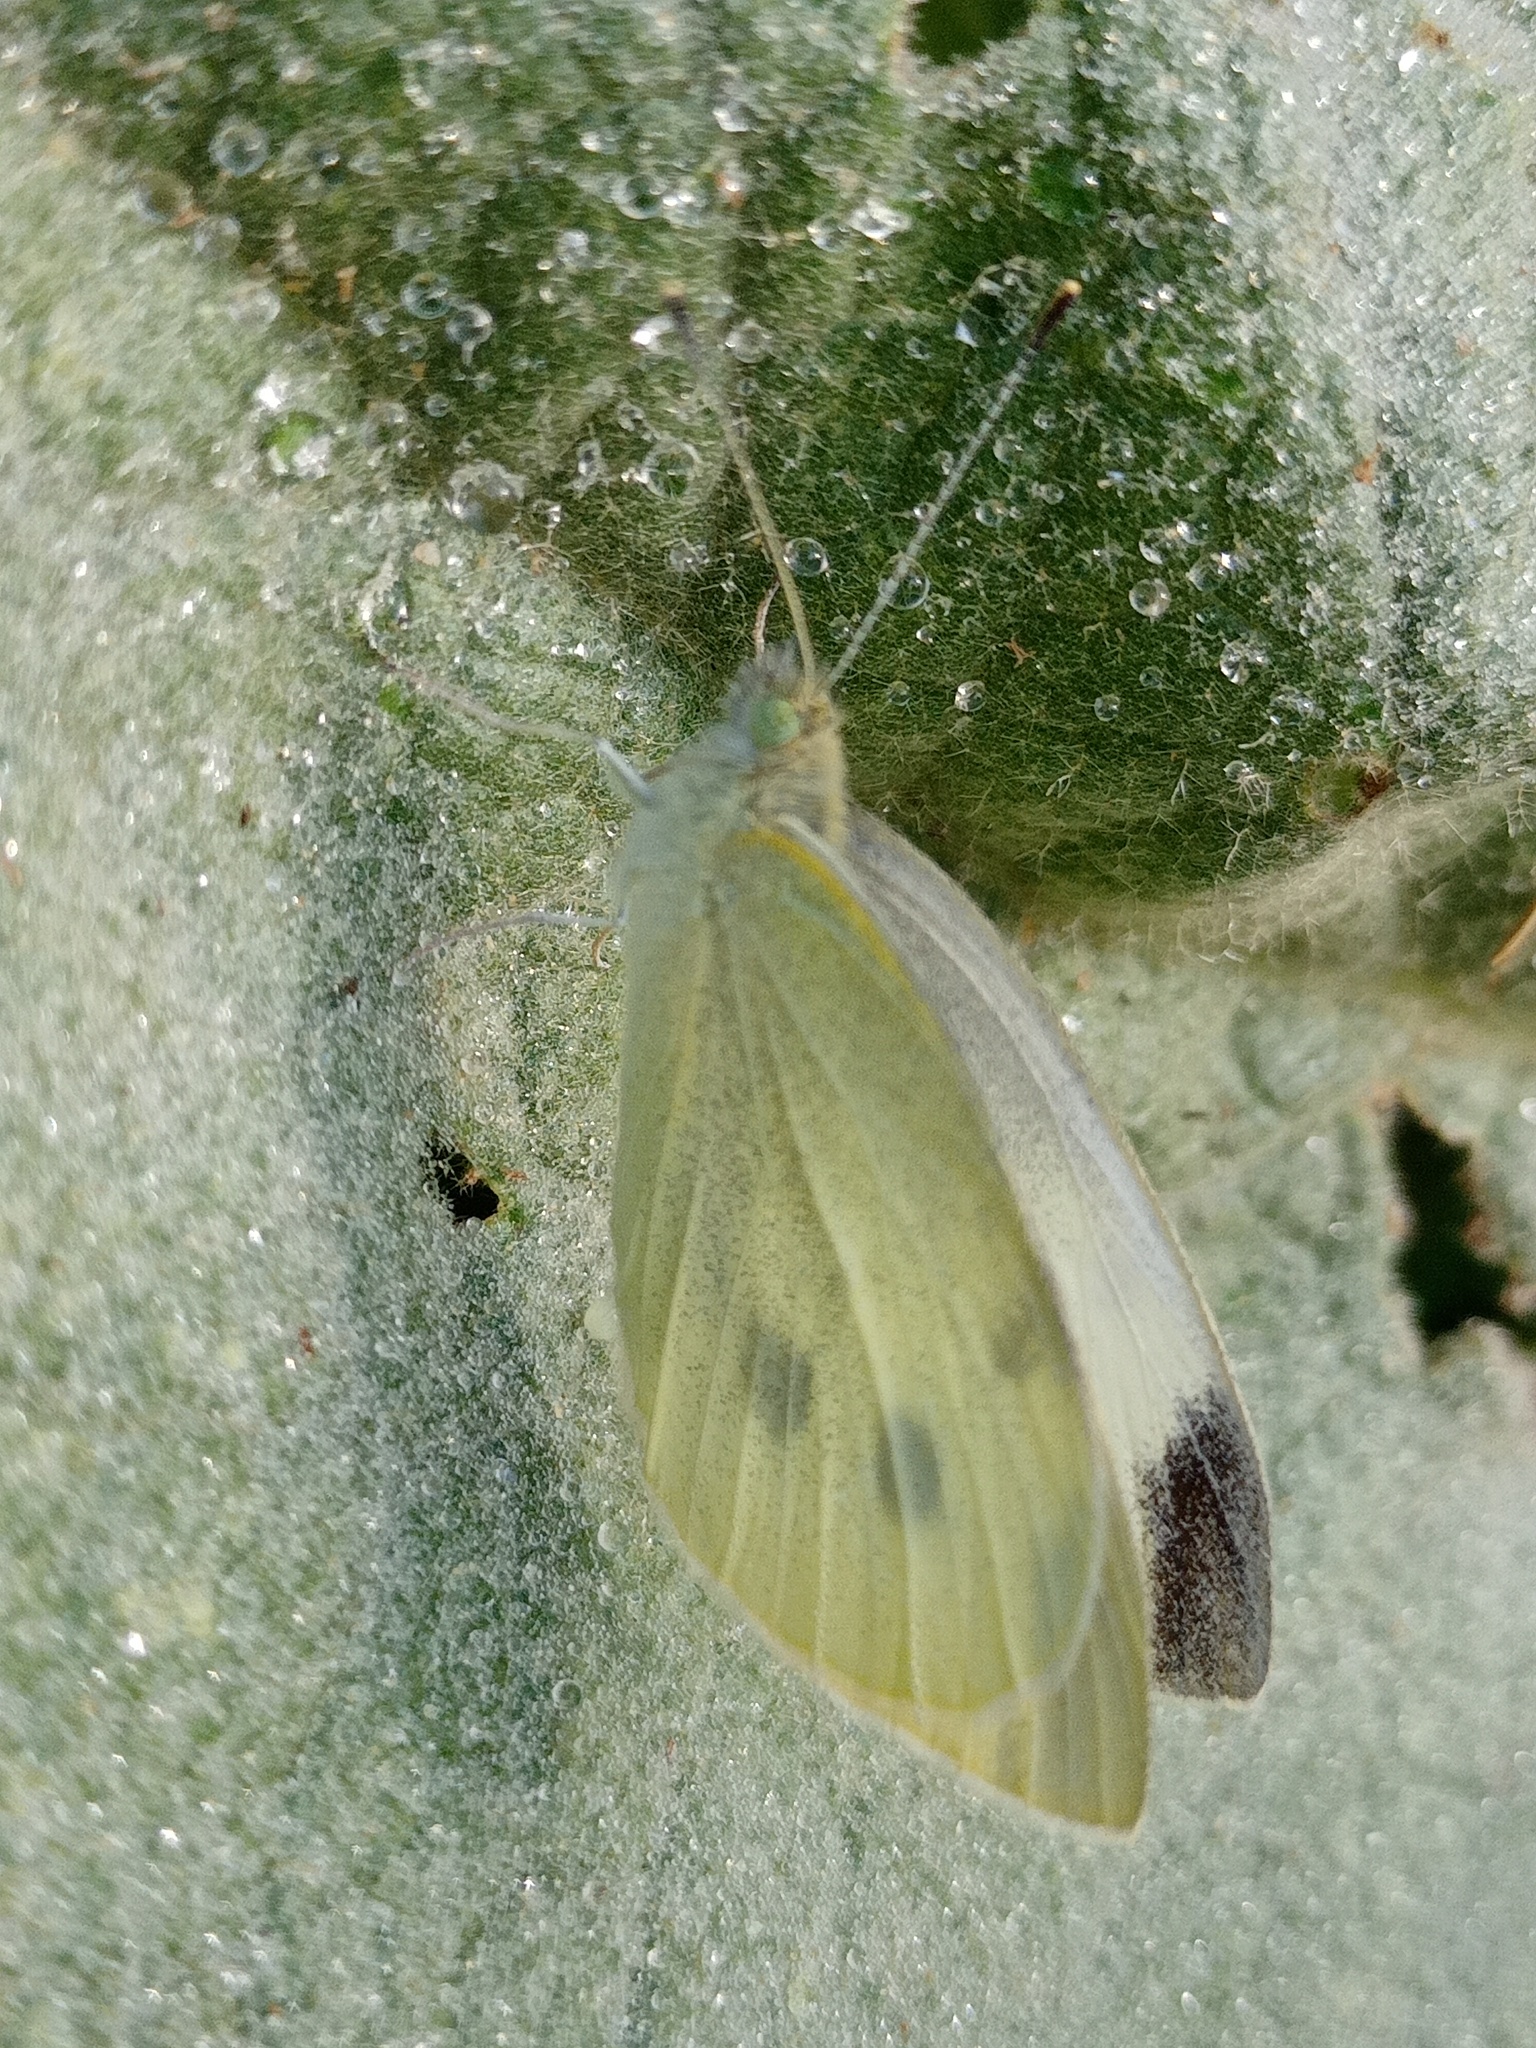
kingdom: Animalia
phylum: Arthropoda
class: Insecta
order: Lepidoptera
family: Pieridae
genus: Pieris
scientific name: Pieris rapae
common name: Small white
